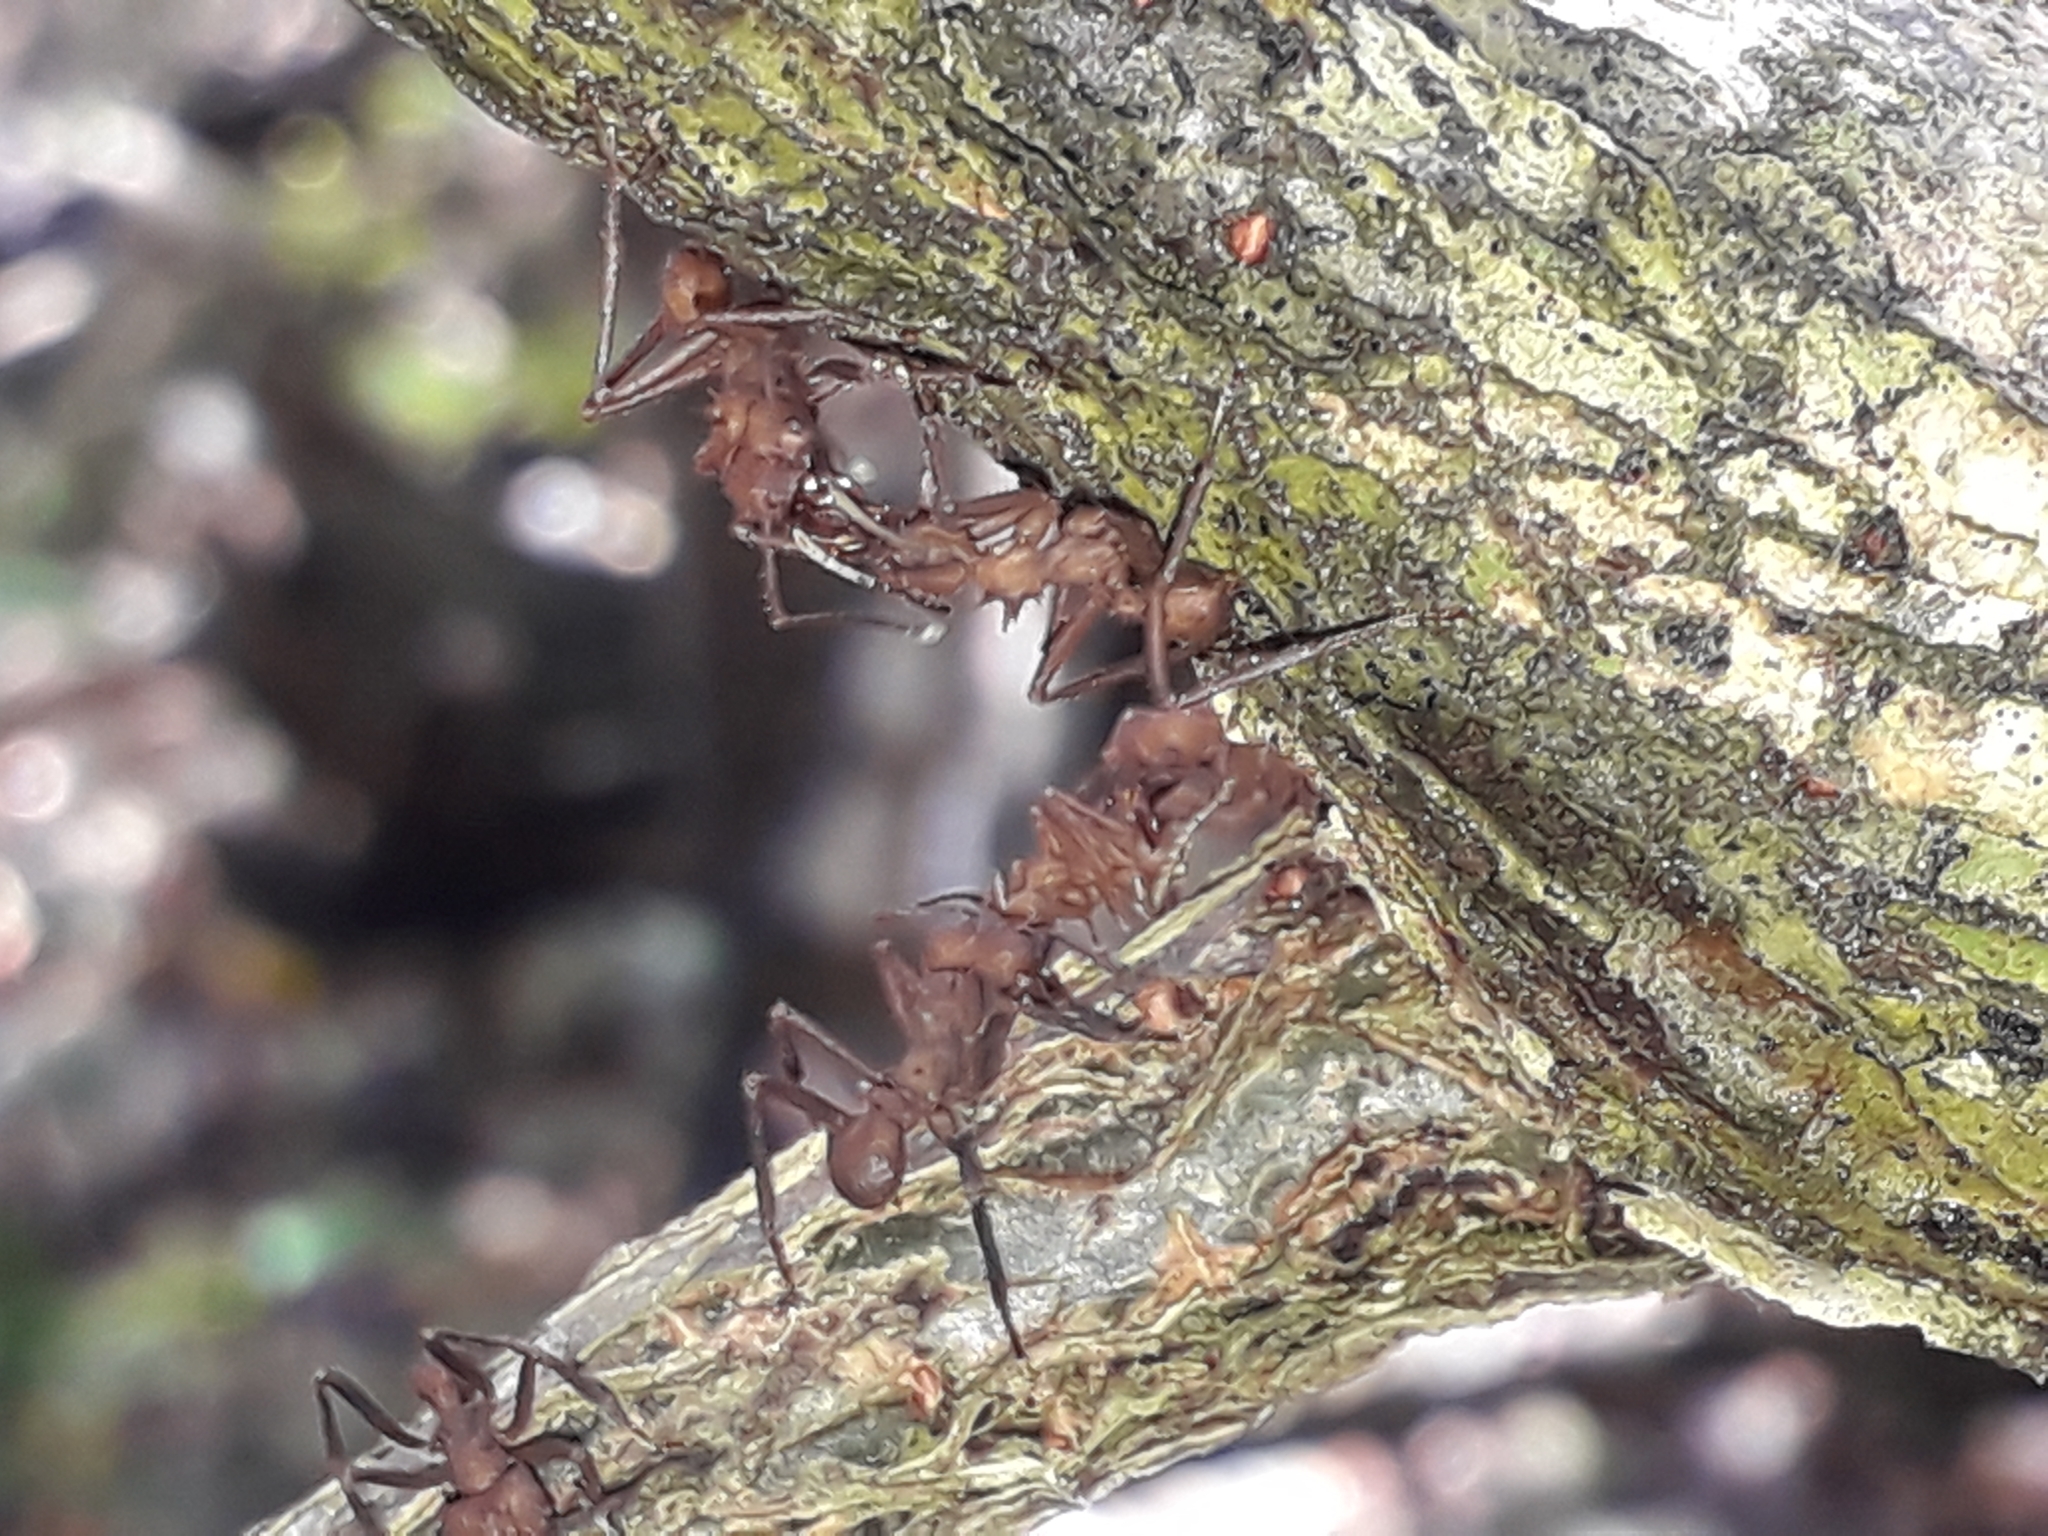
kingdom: Animalia
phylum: Arthropoda
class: Insecta
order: Hymenoptera
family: Formicidae
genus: Acromyrmex
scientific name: Acromyrmex octospinosus
